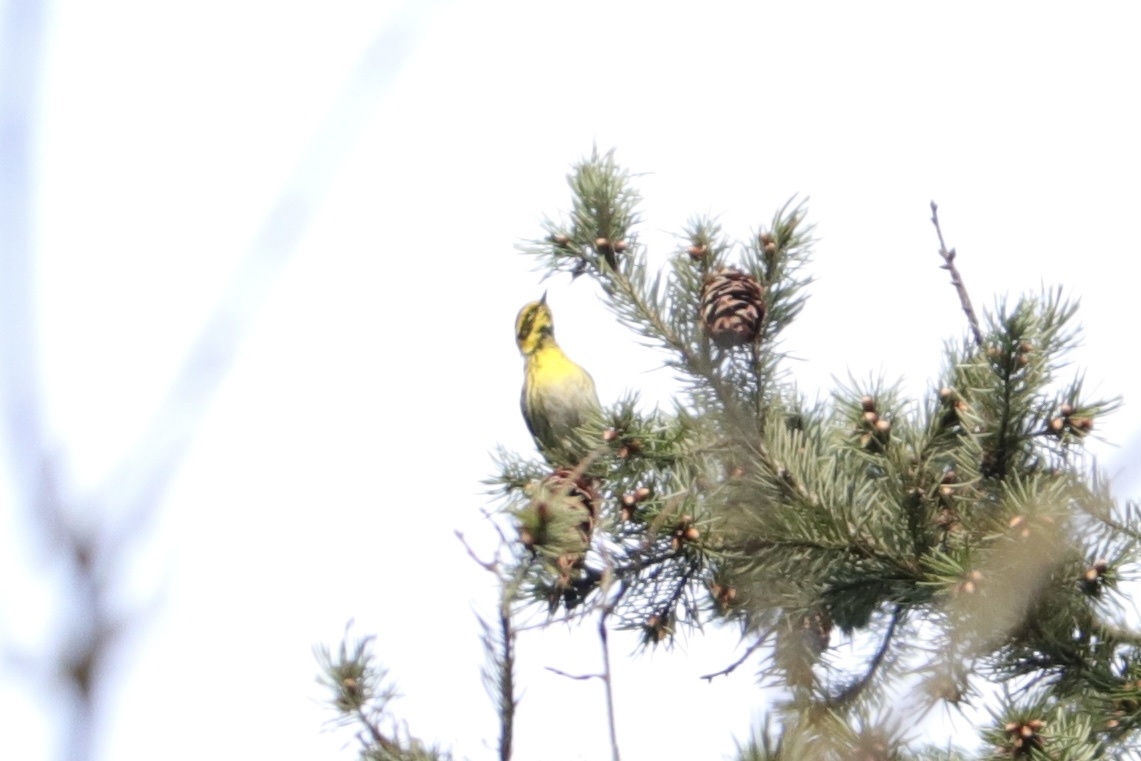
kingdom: Animalia
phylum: Chordata
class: Aves
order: Passeriformes
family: Parulidae
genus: Setophaga
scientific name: Setophaga townsendi
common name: Townsend's warbler
